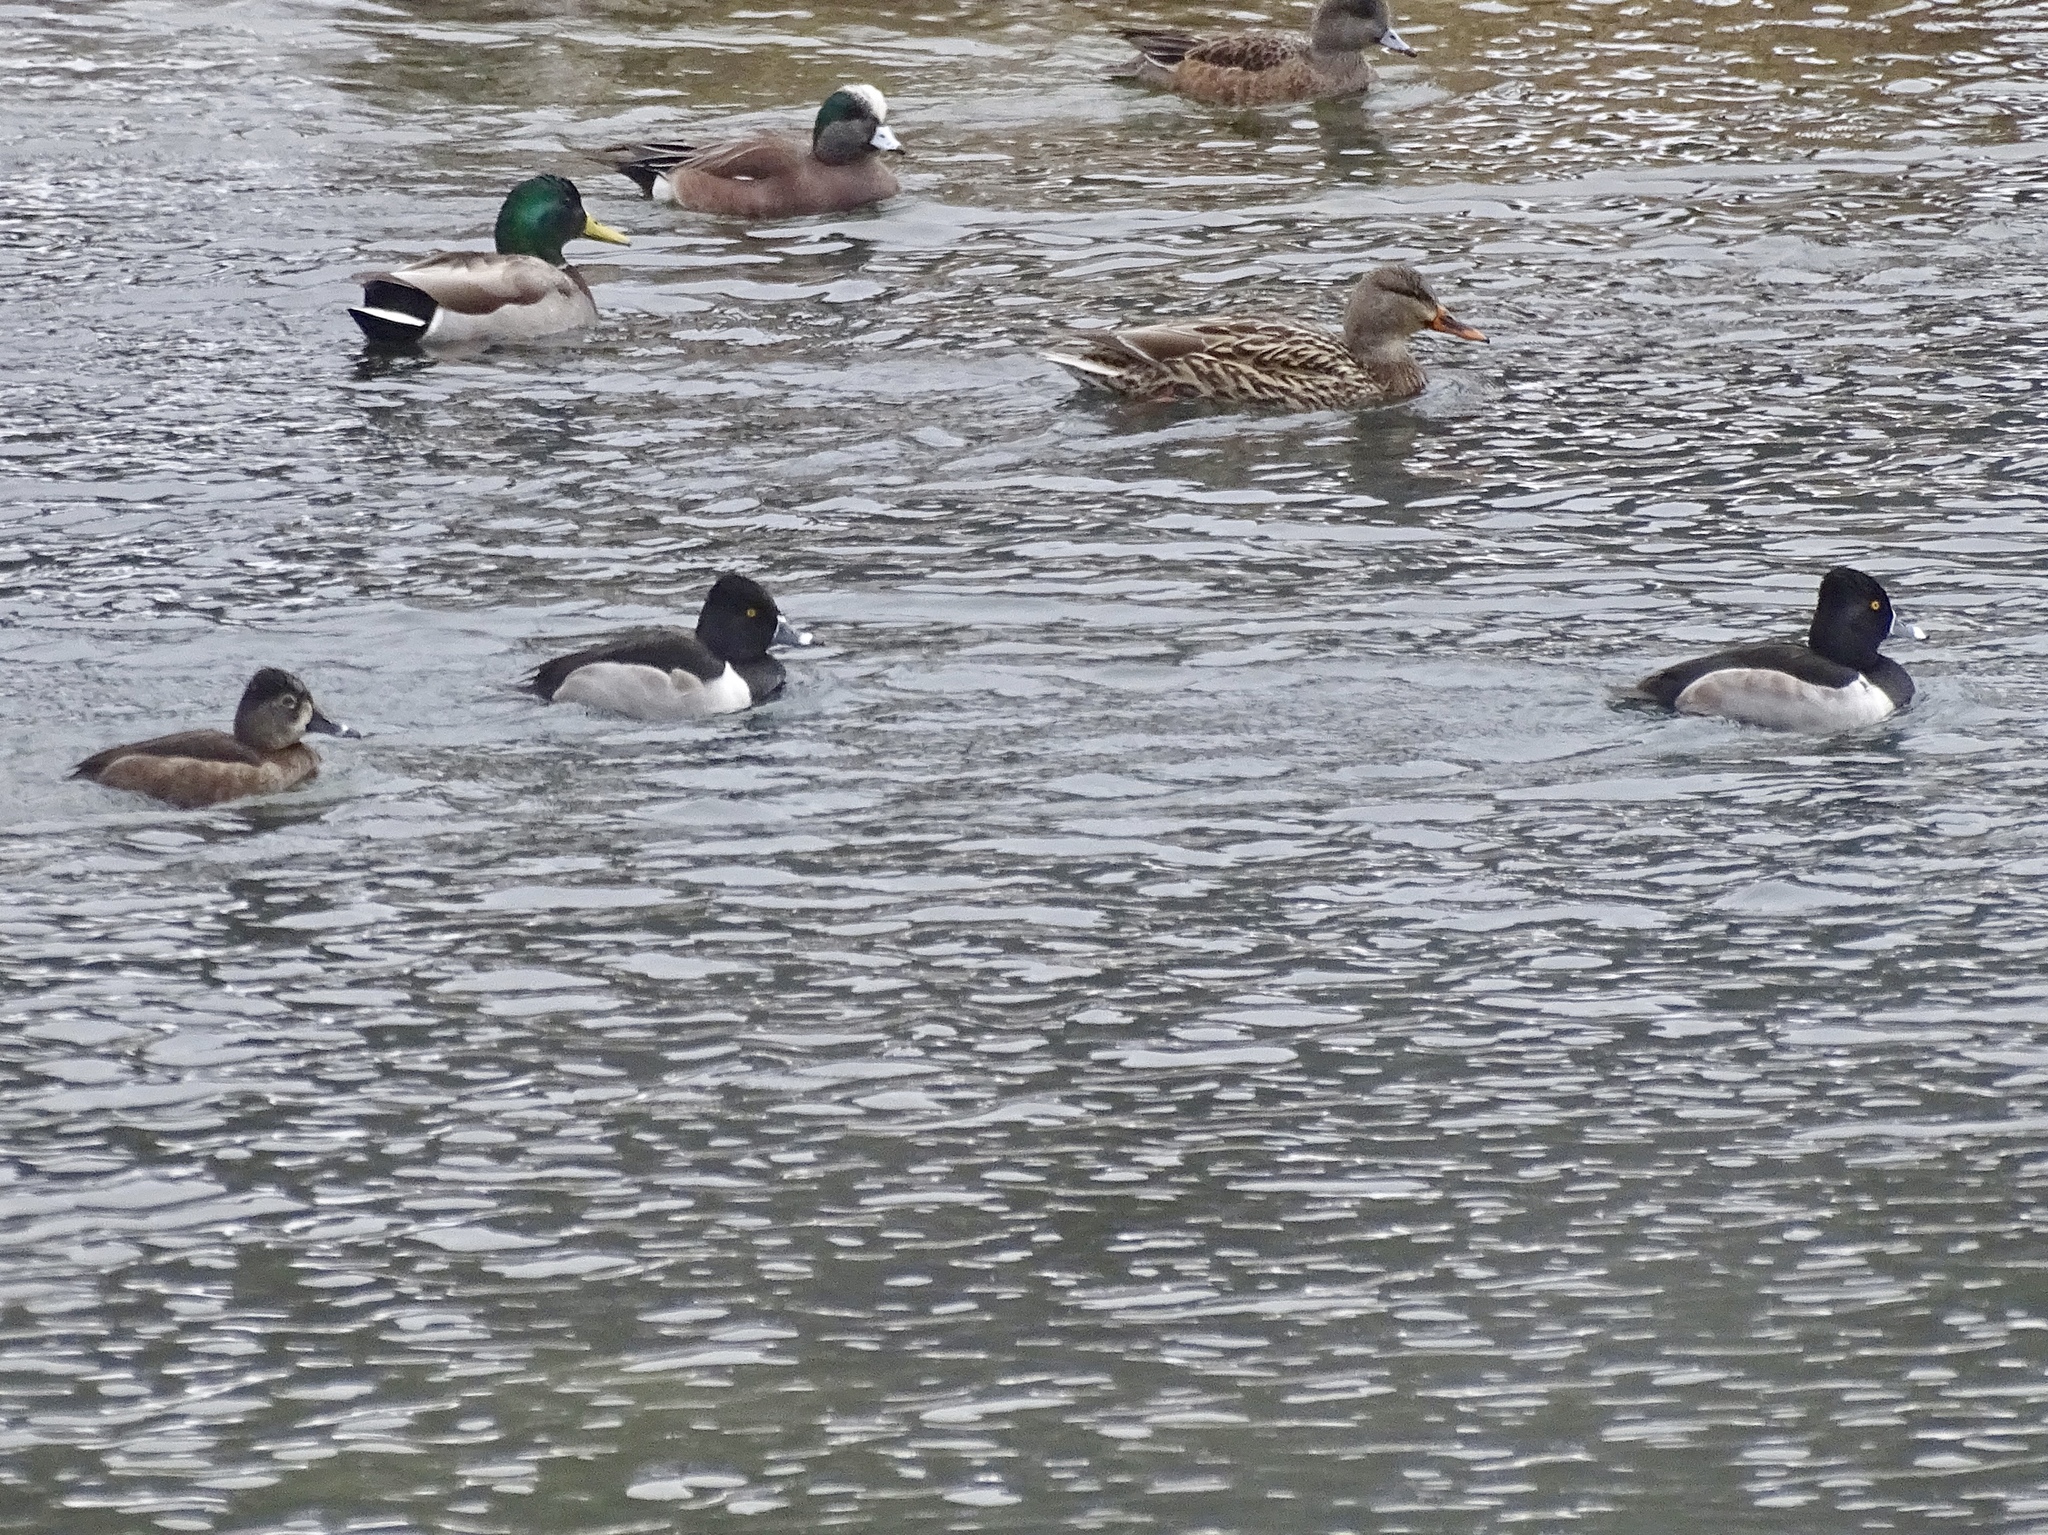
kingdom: Animalia
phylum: Chordata
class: Aves
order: Anseriformes
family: Anatidae
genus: Aythya
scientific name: Aythya collaris
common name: Ring-necked duck
